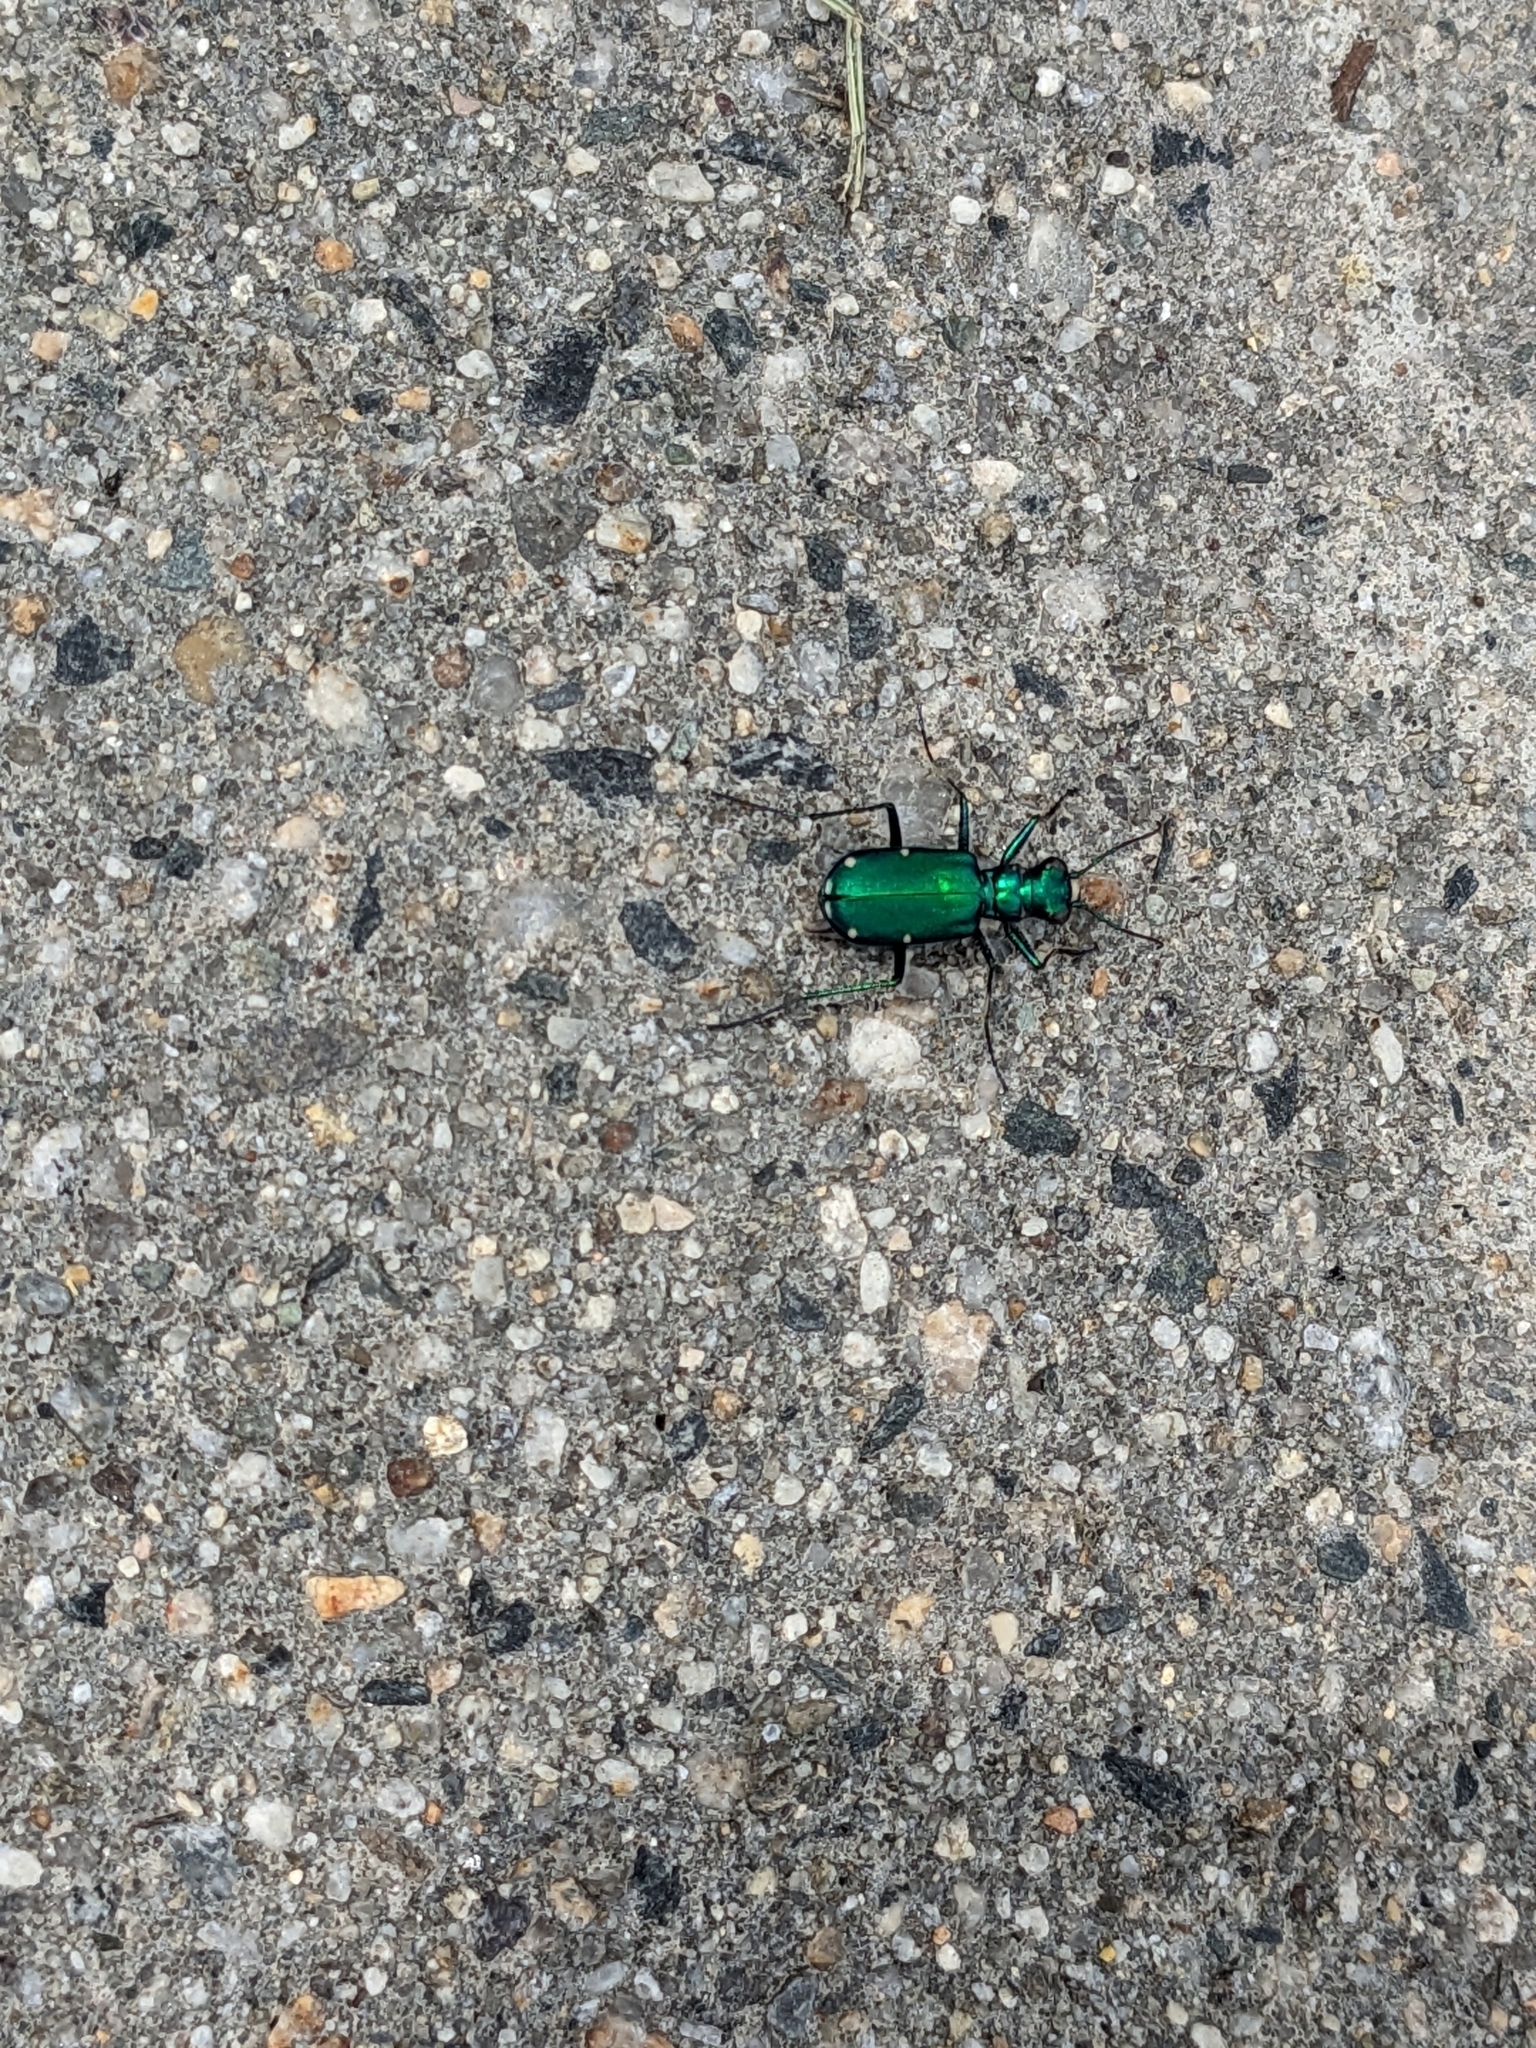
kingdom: Animalia
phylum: Arthropoda
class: Insecta
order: Coleoptera
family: Carabidae
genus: Cicindela
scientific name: Cicindela sexguttata
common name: Six-spotted tiger beetle
